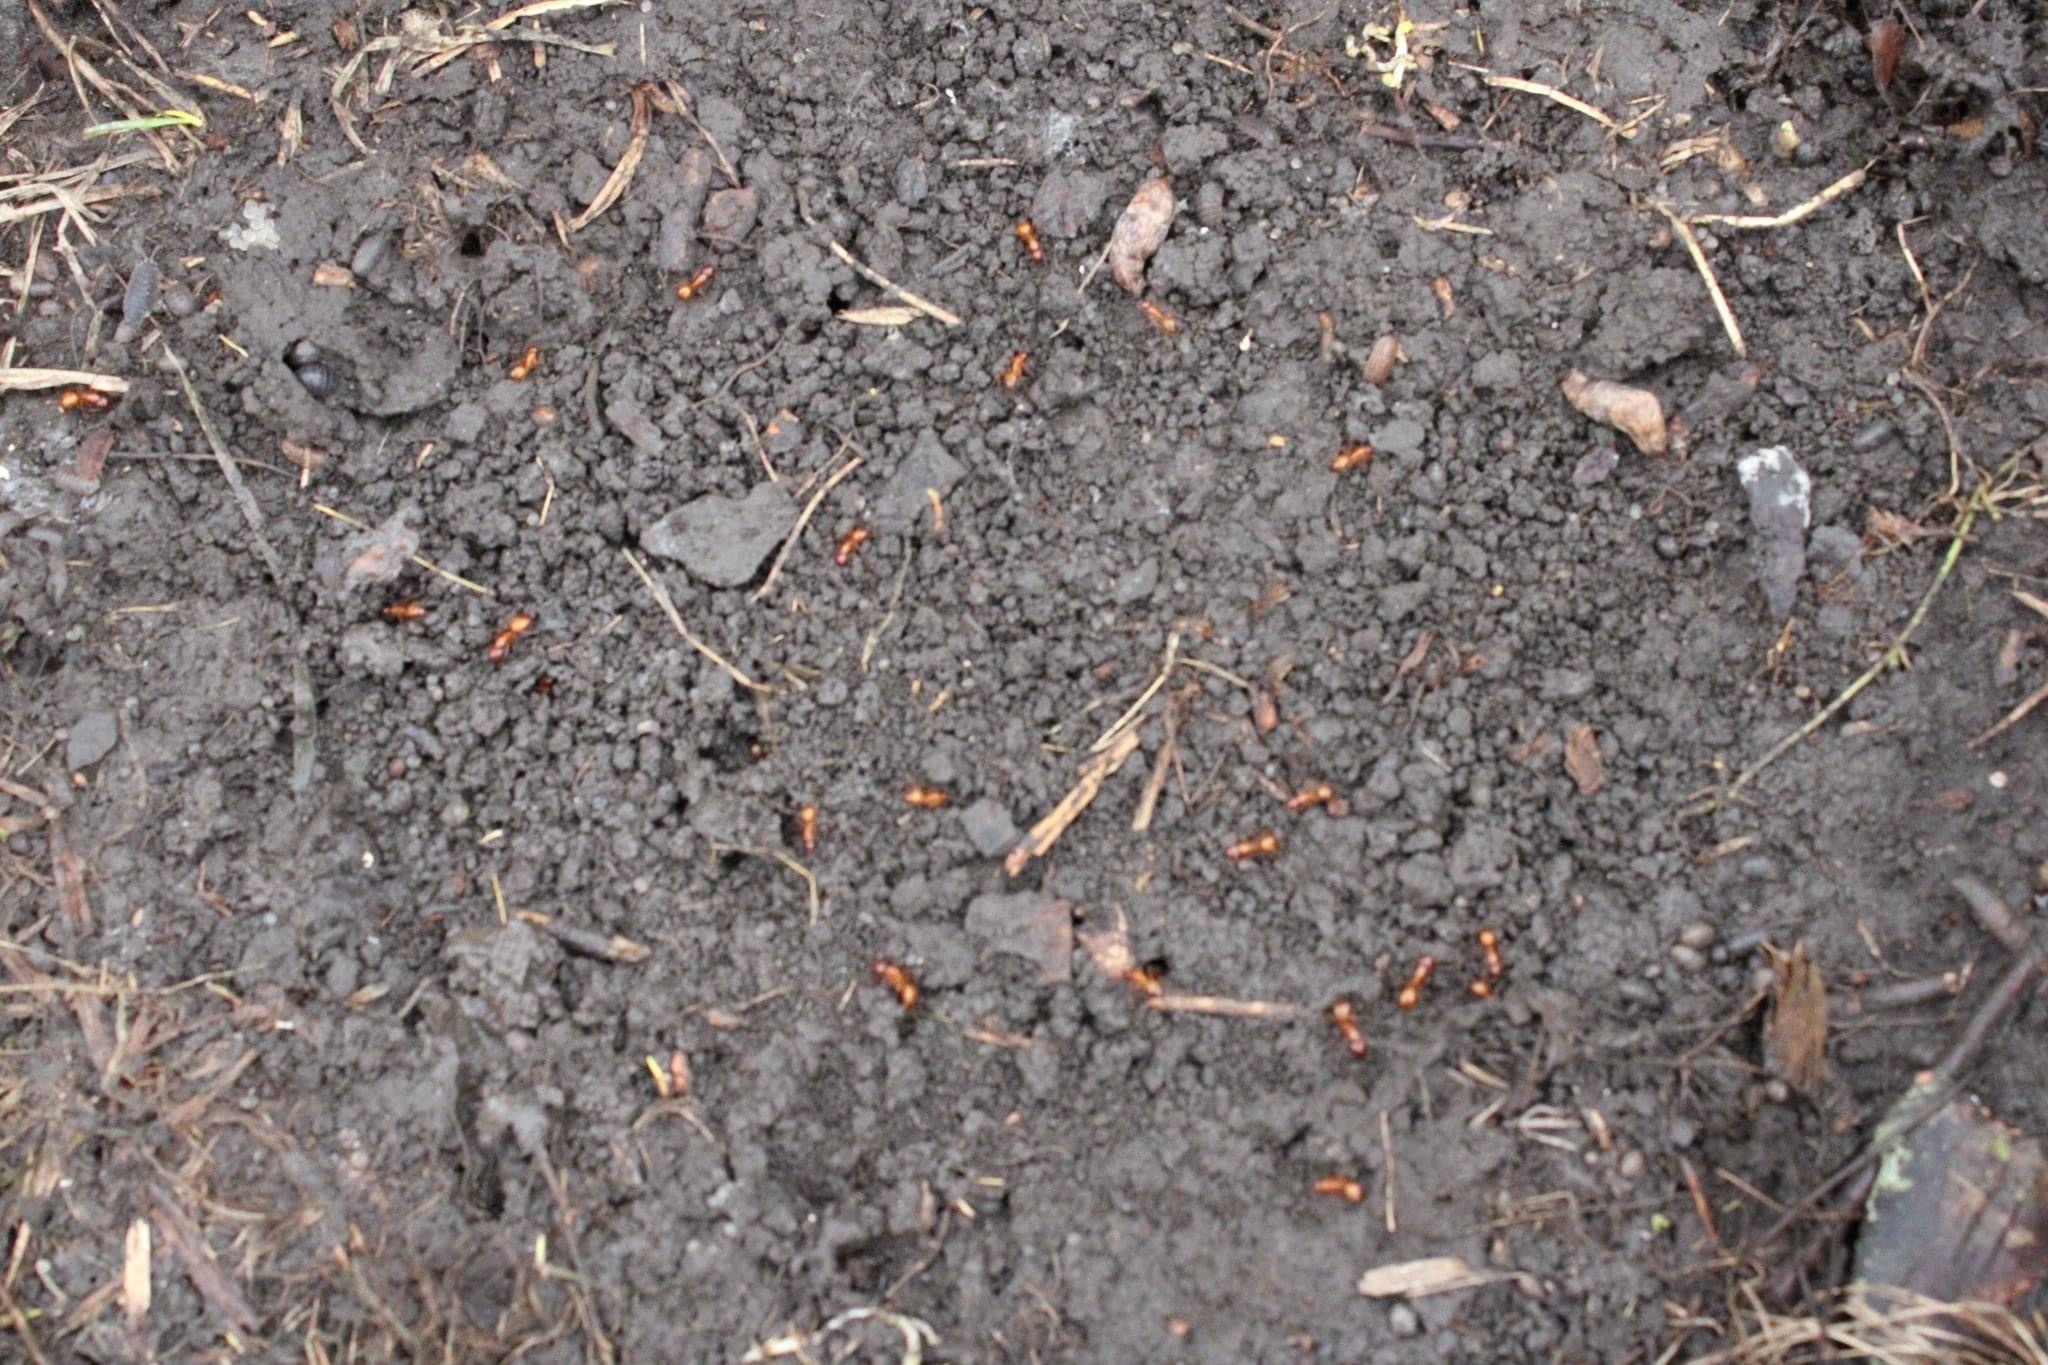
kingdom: Animalia
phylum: Arthropoda
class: Insecta
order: Hymenoptera
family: Formicidae
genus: Camponotus
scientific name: Camponotus castaneus
